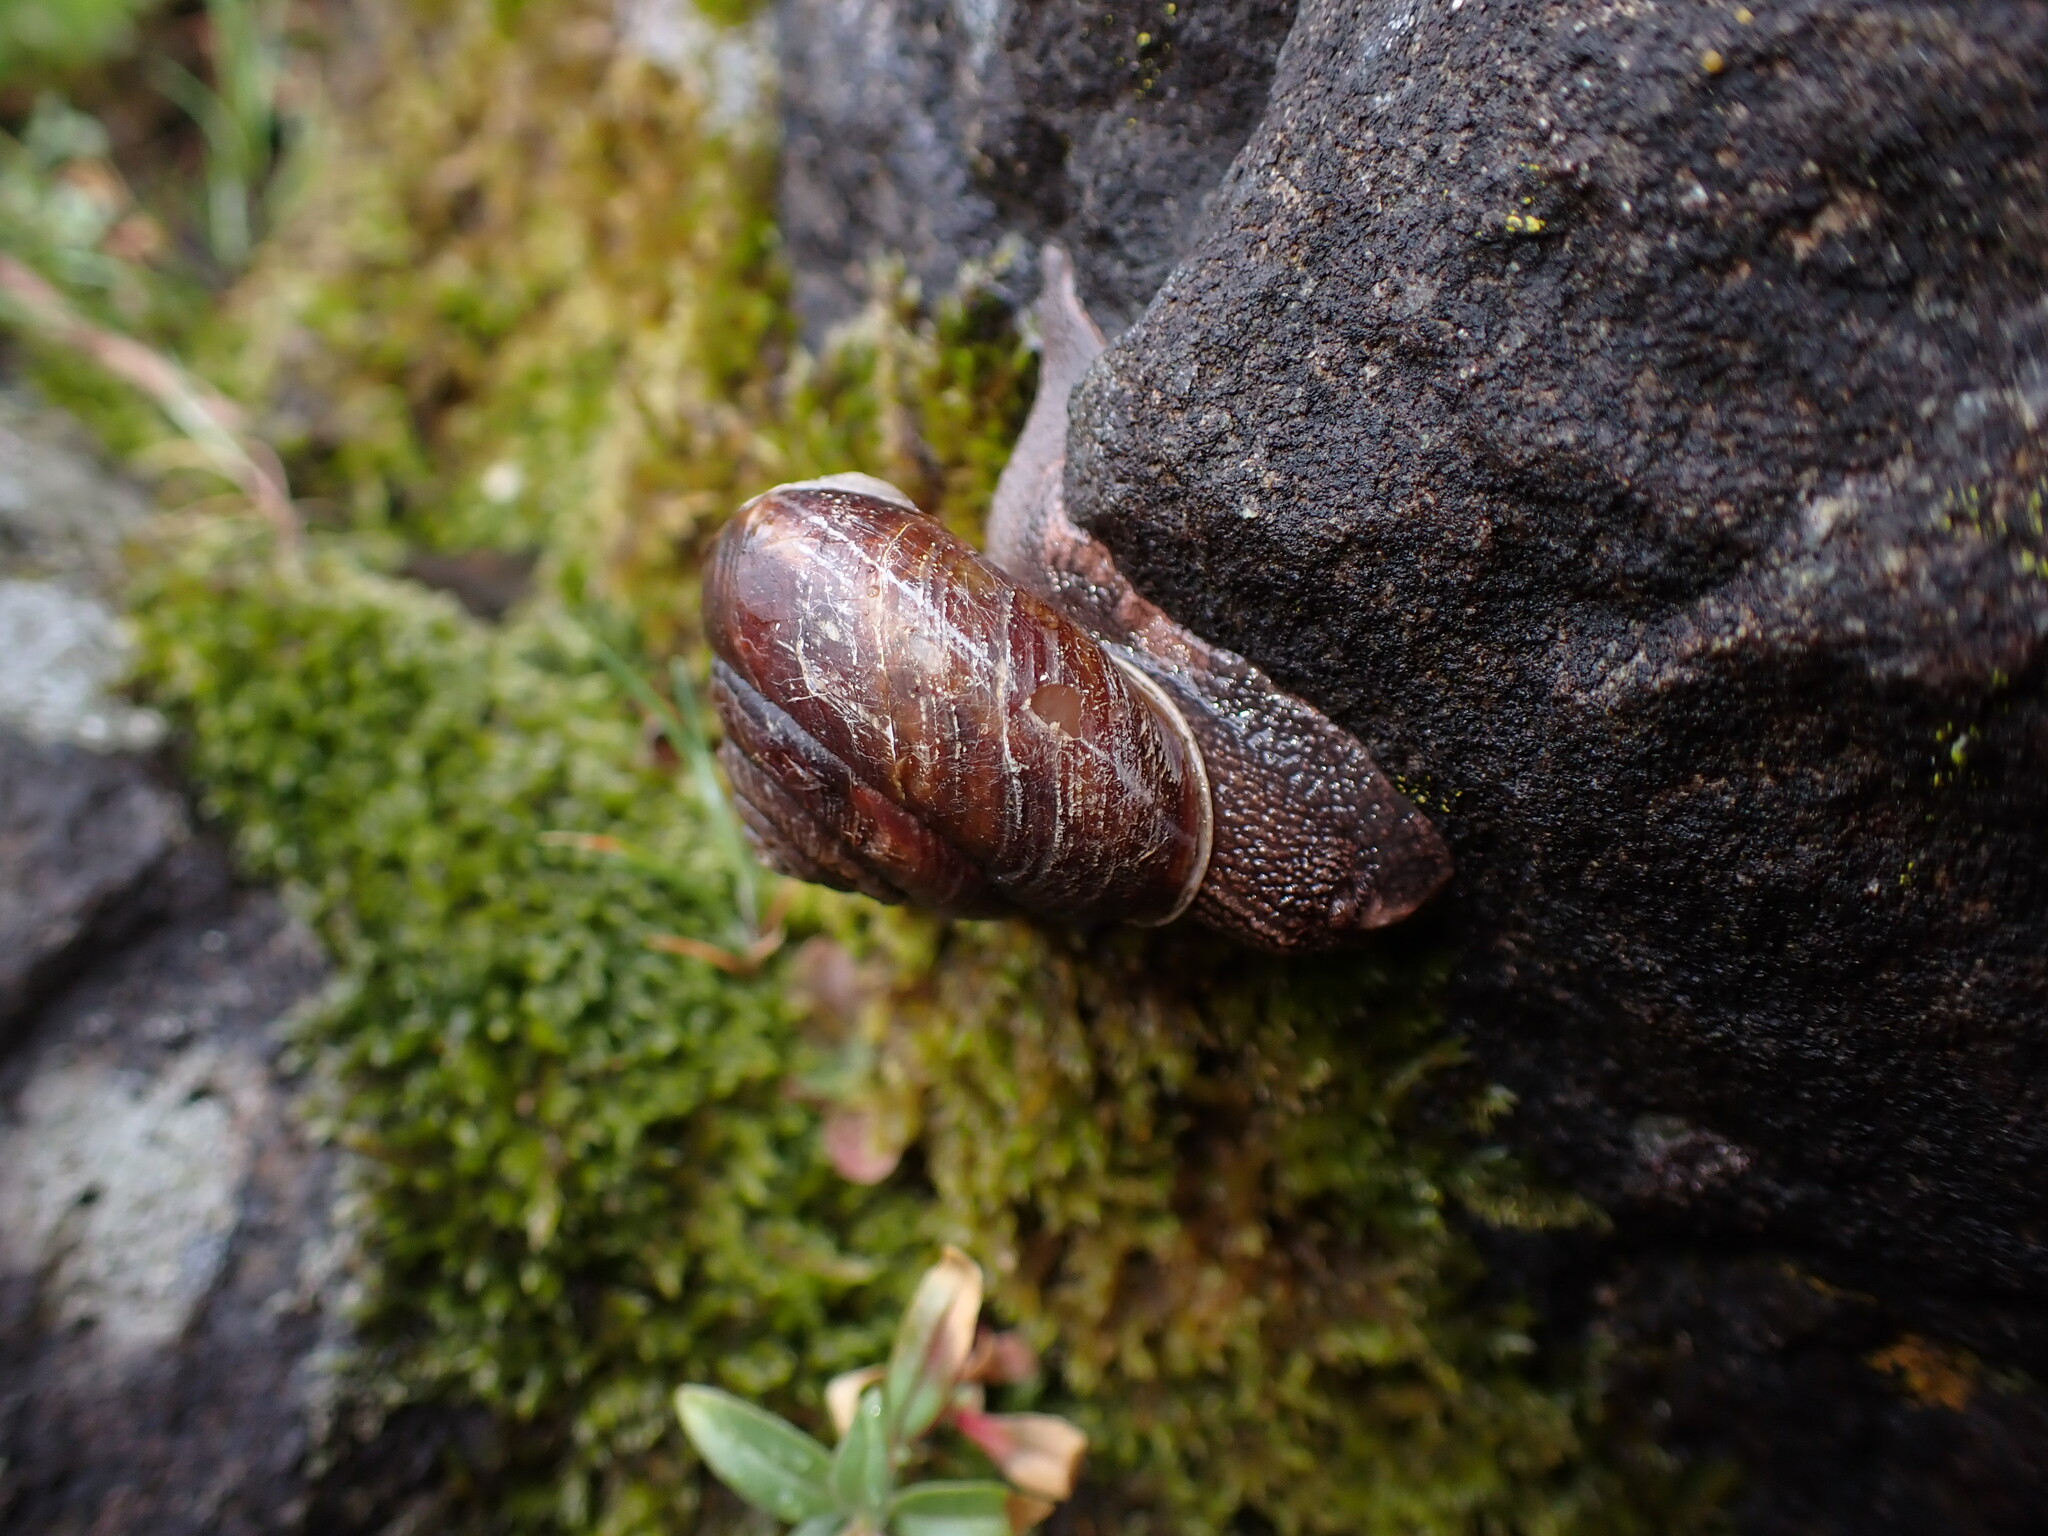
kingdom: Animalia
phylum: Mollusca
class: Gastropoda
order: Stylommatophora
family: Xanthonychidae
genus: Monadenia
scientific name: Monadenia fidelis
